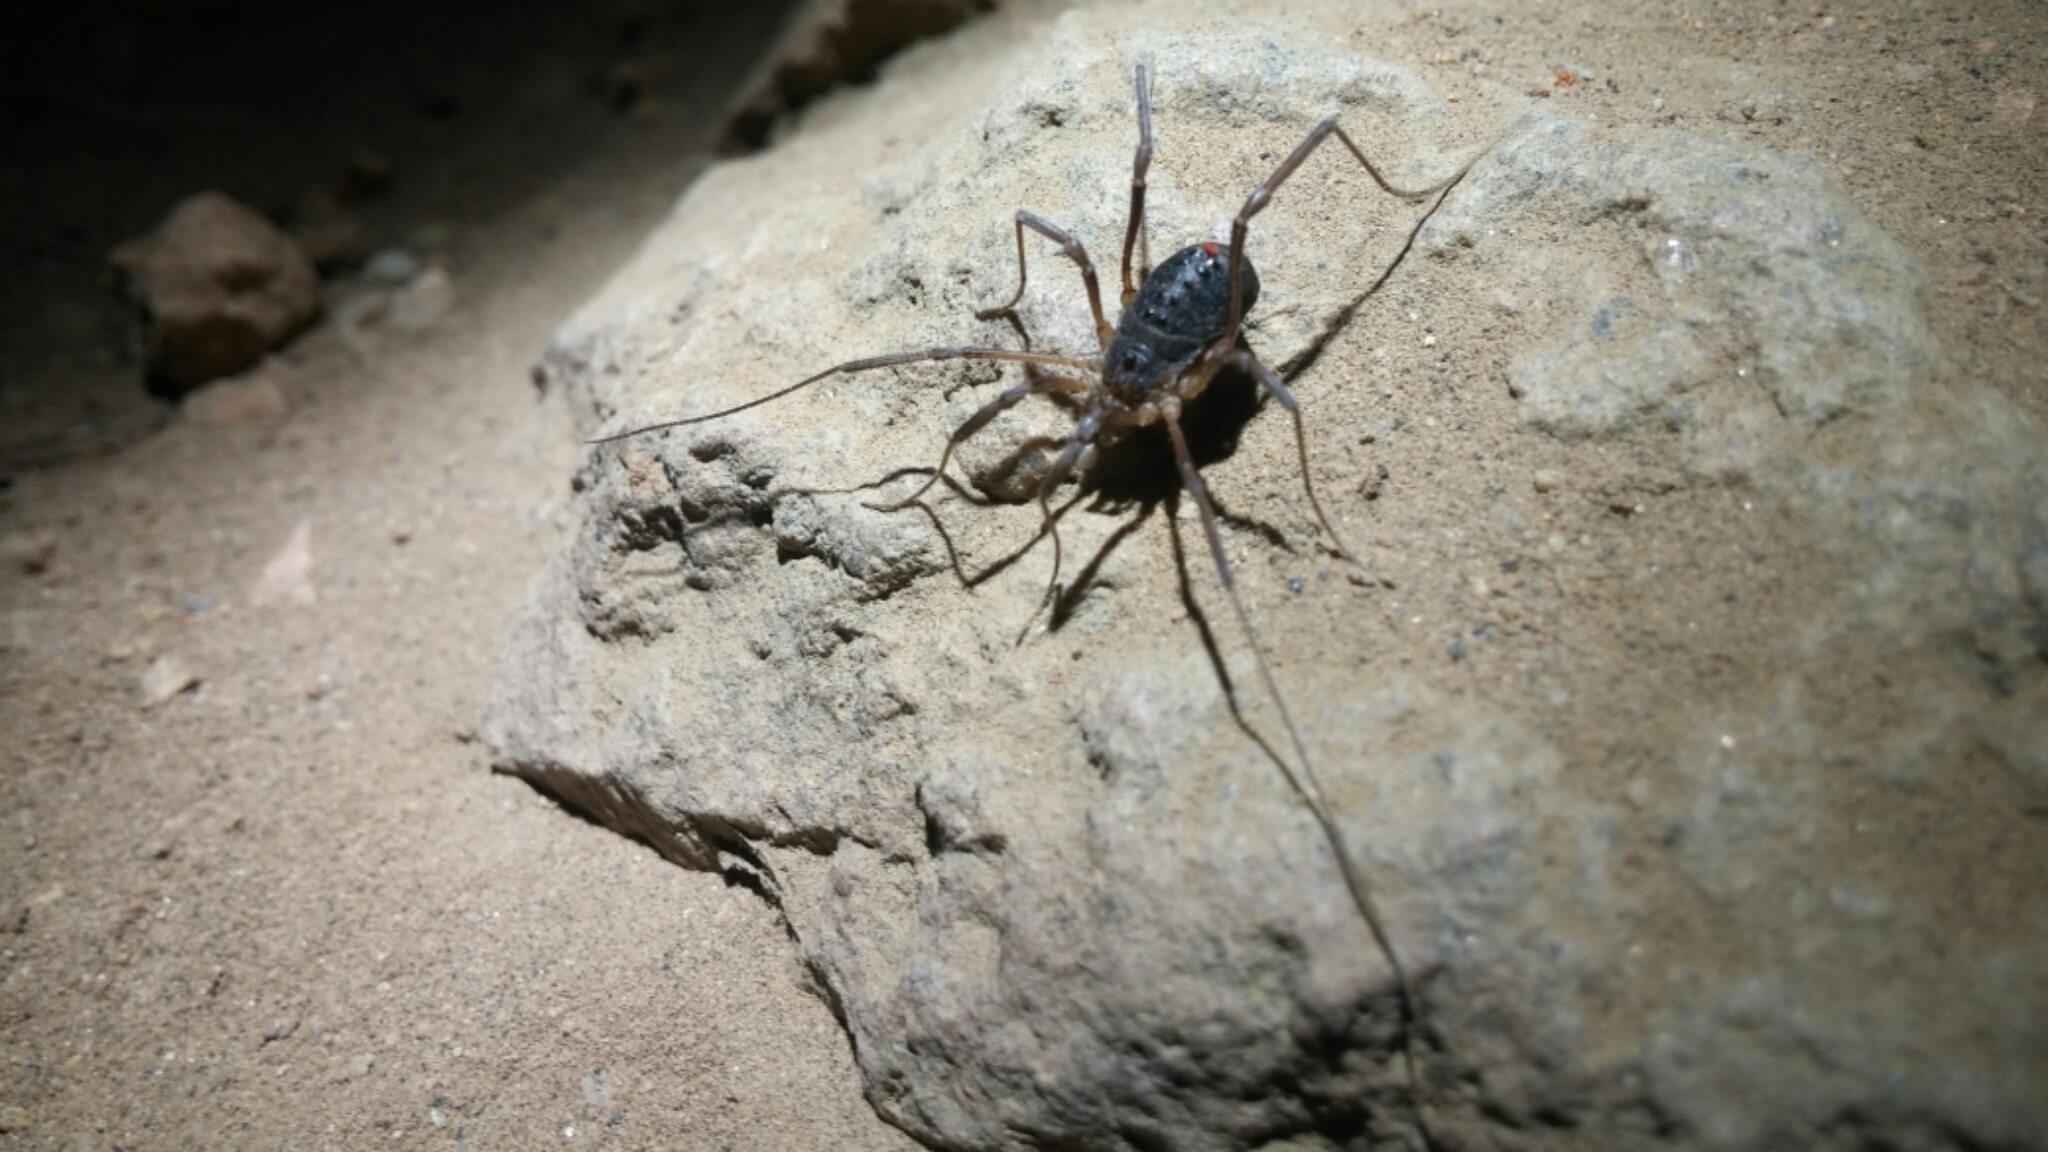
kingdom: Animalia
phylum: Arthropoda
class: Arachnida
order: Opiliones
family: Protolophidae
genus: Protolophus
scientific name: Protolophus singularis
